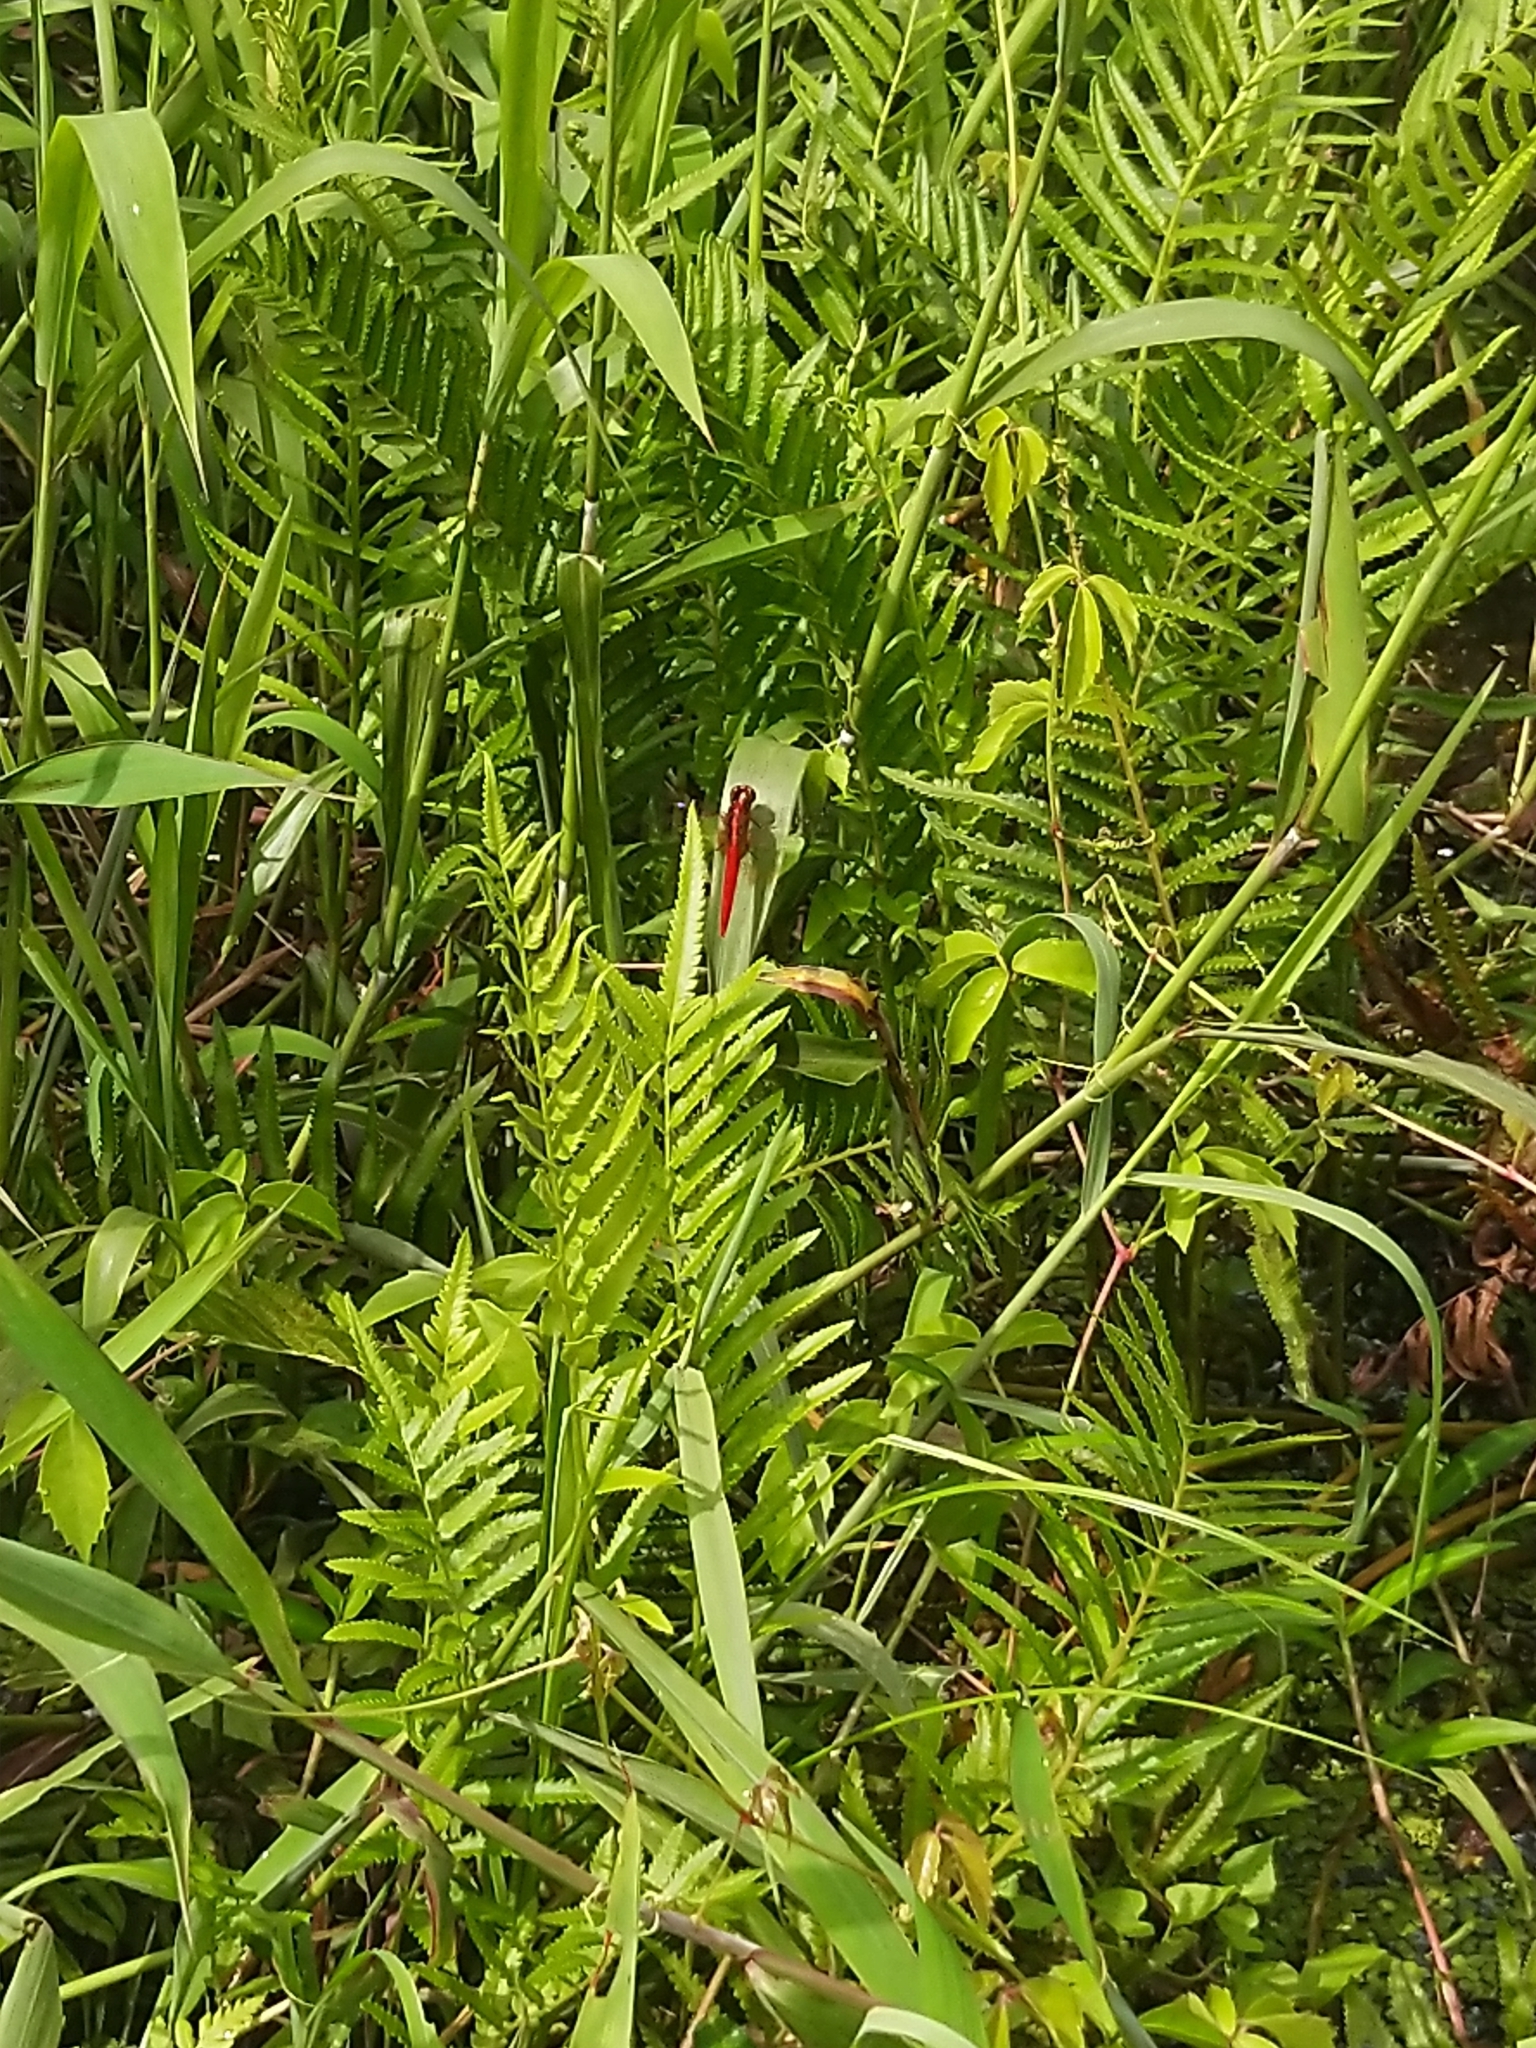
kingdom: Animalia
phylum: Arthropoda
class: Insecta
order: Odonata
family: Libellulidae
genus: Rhodothemis
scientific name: Rhodothemis rufa
